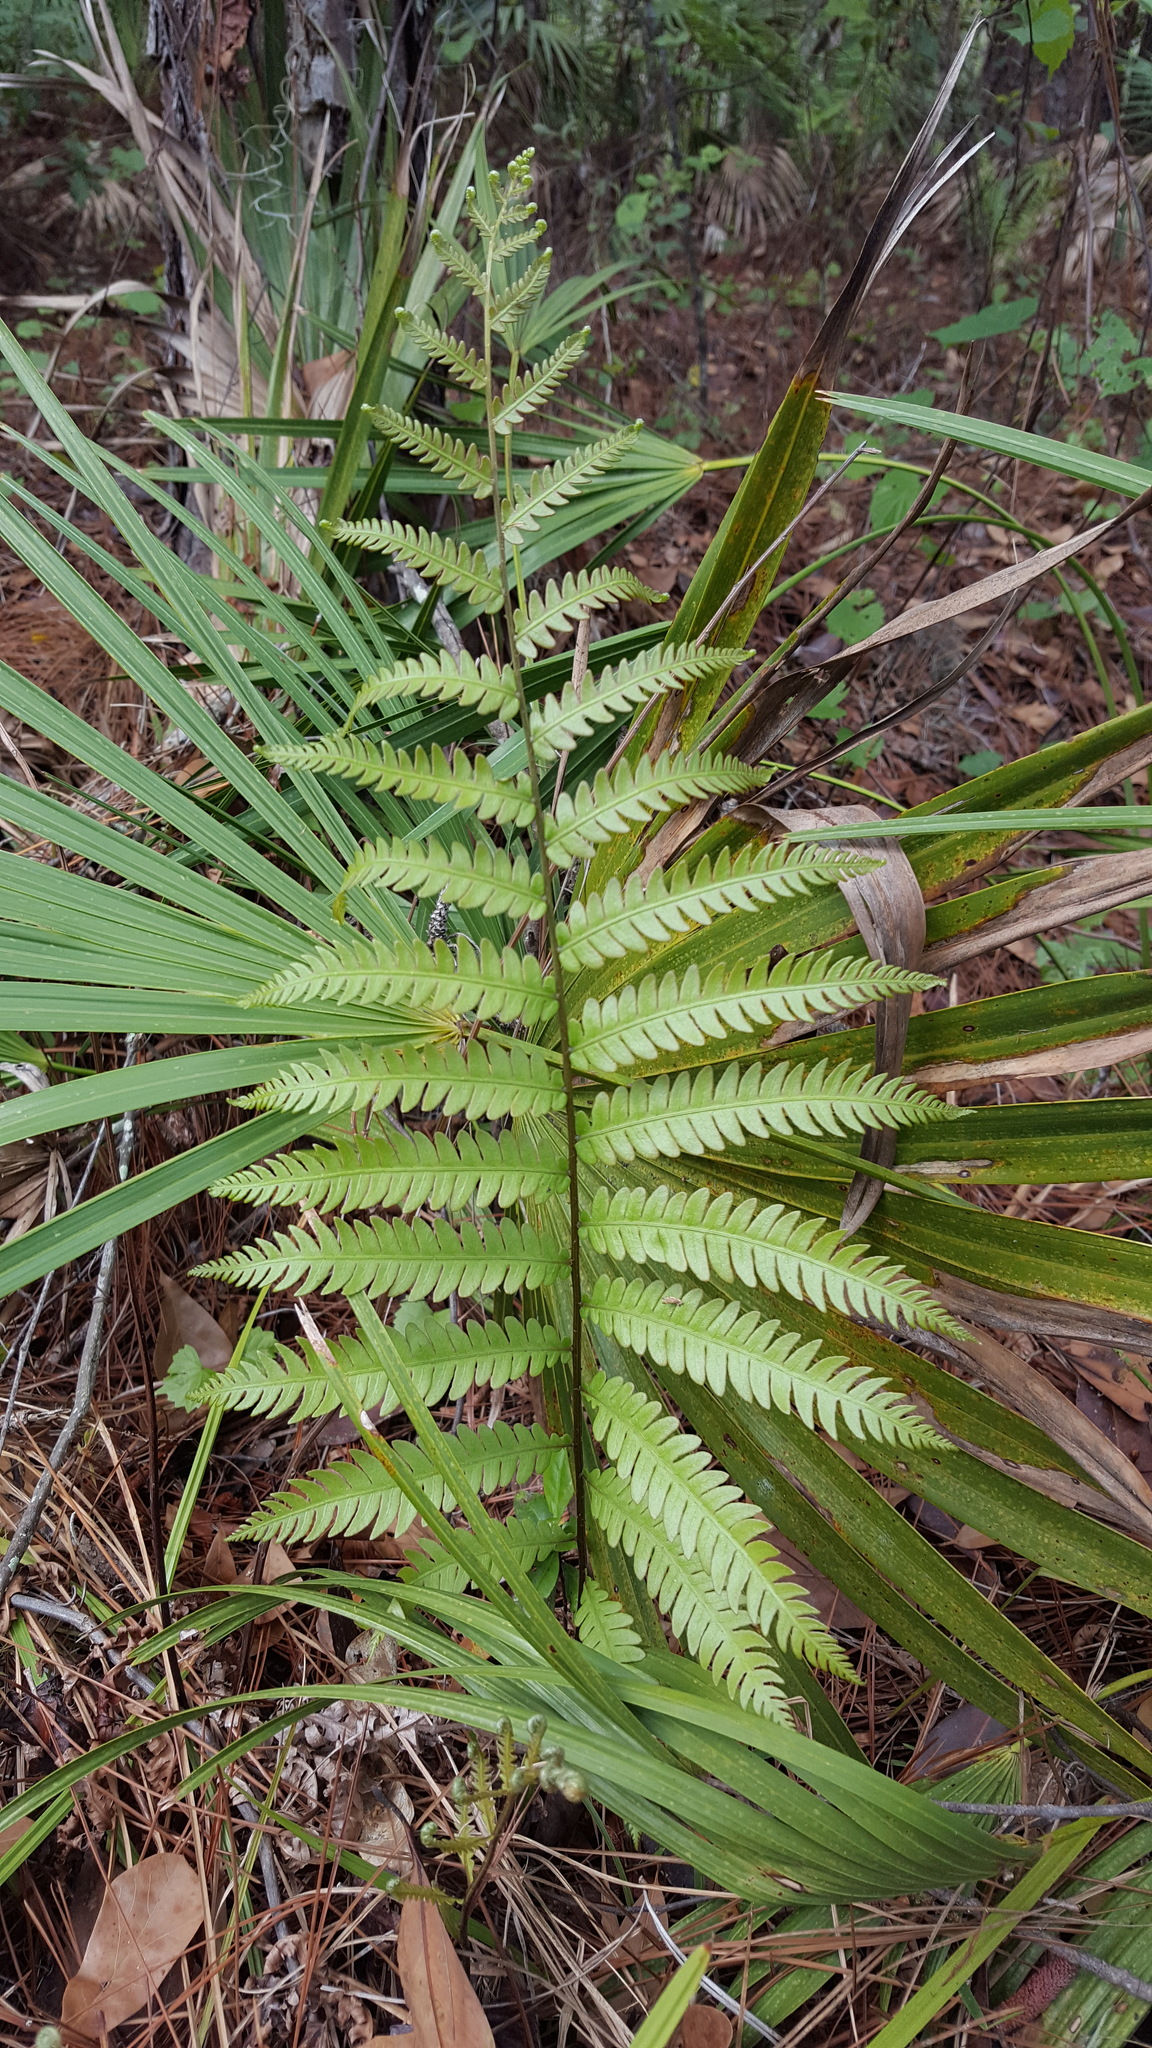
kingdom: Plantae
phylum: Tracheophyta
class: Polypodiopsida
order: Polypodiales
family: Blechnaceae
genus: Anchistea
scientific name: Anchistea virginica
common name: Virginia chain fern
